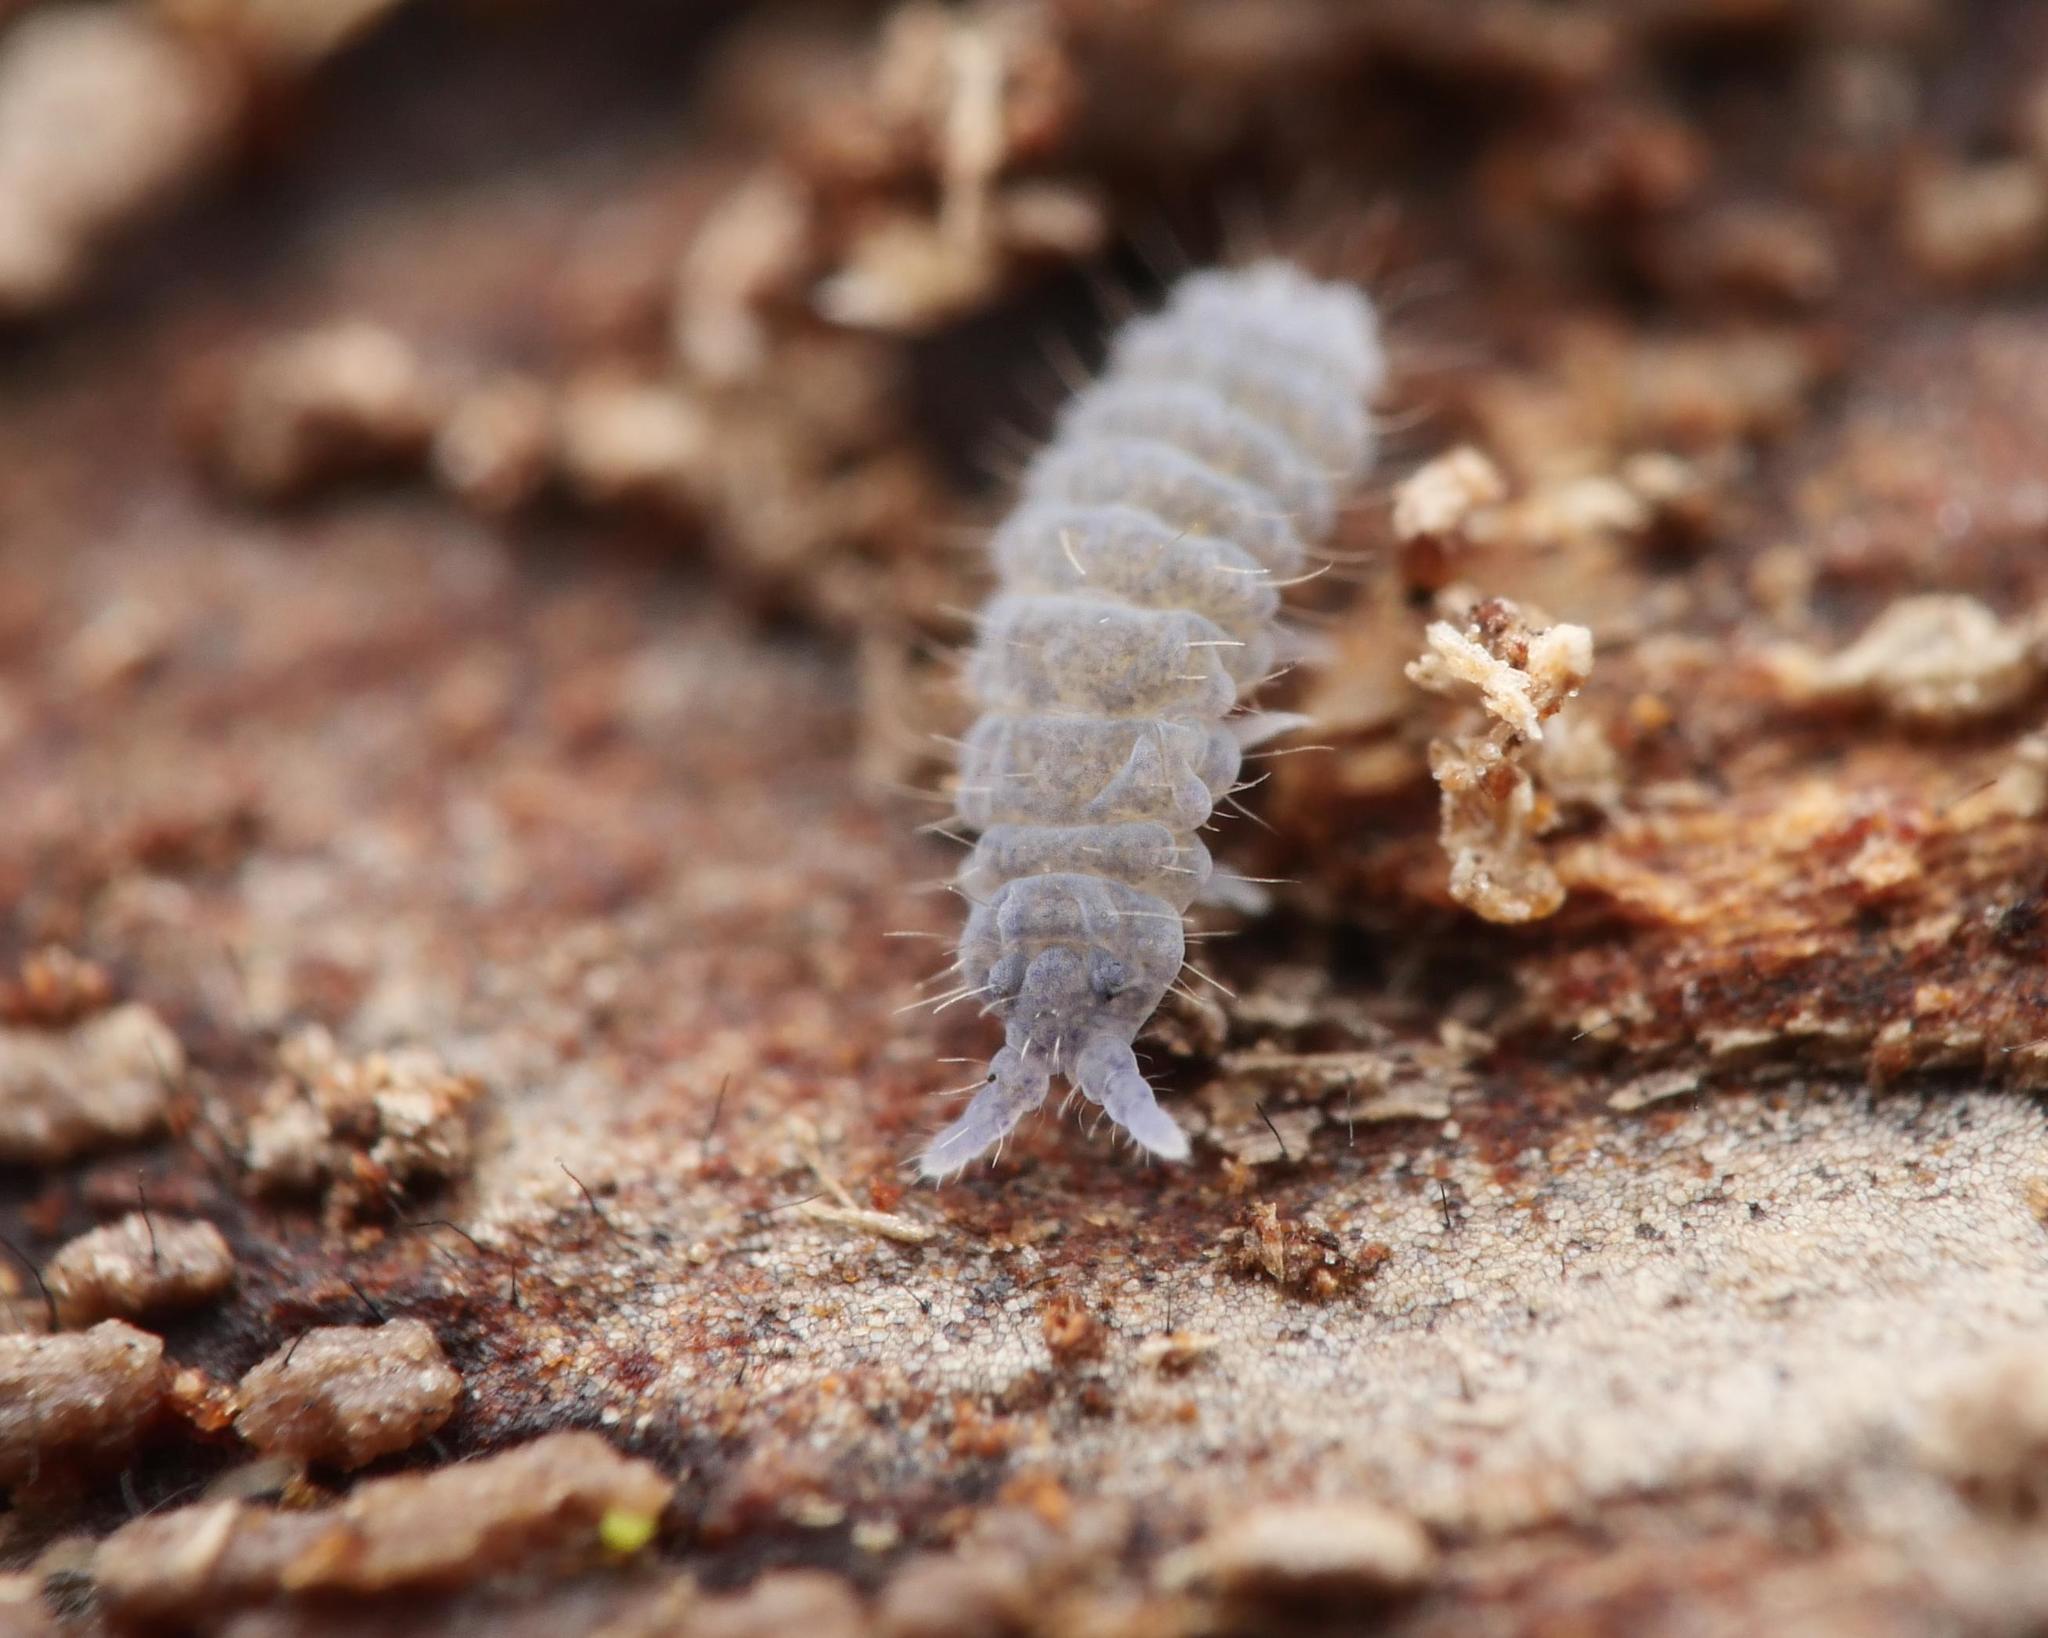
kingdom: Animalia
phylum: Arthropoda
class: Collembola
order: Poduromorpha
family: Neanuridae
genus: Neanura
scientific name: Neanura muscorum
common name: Springtail
